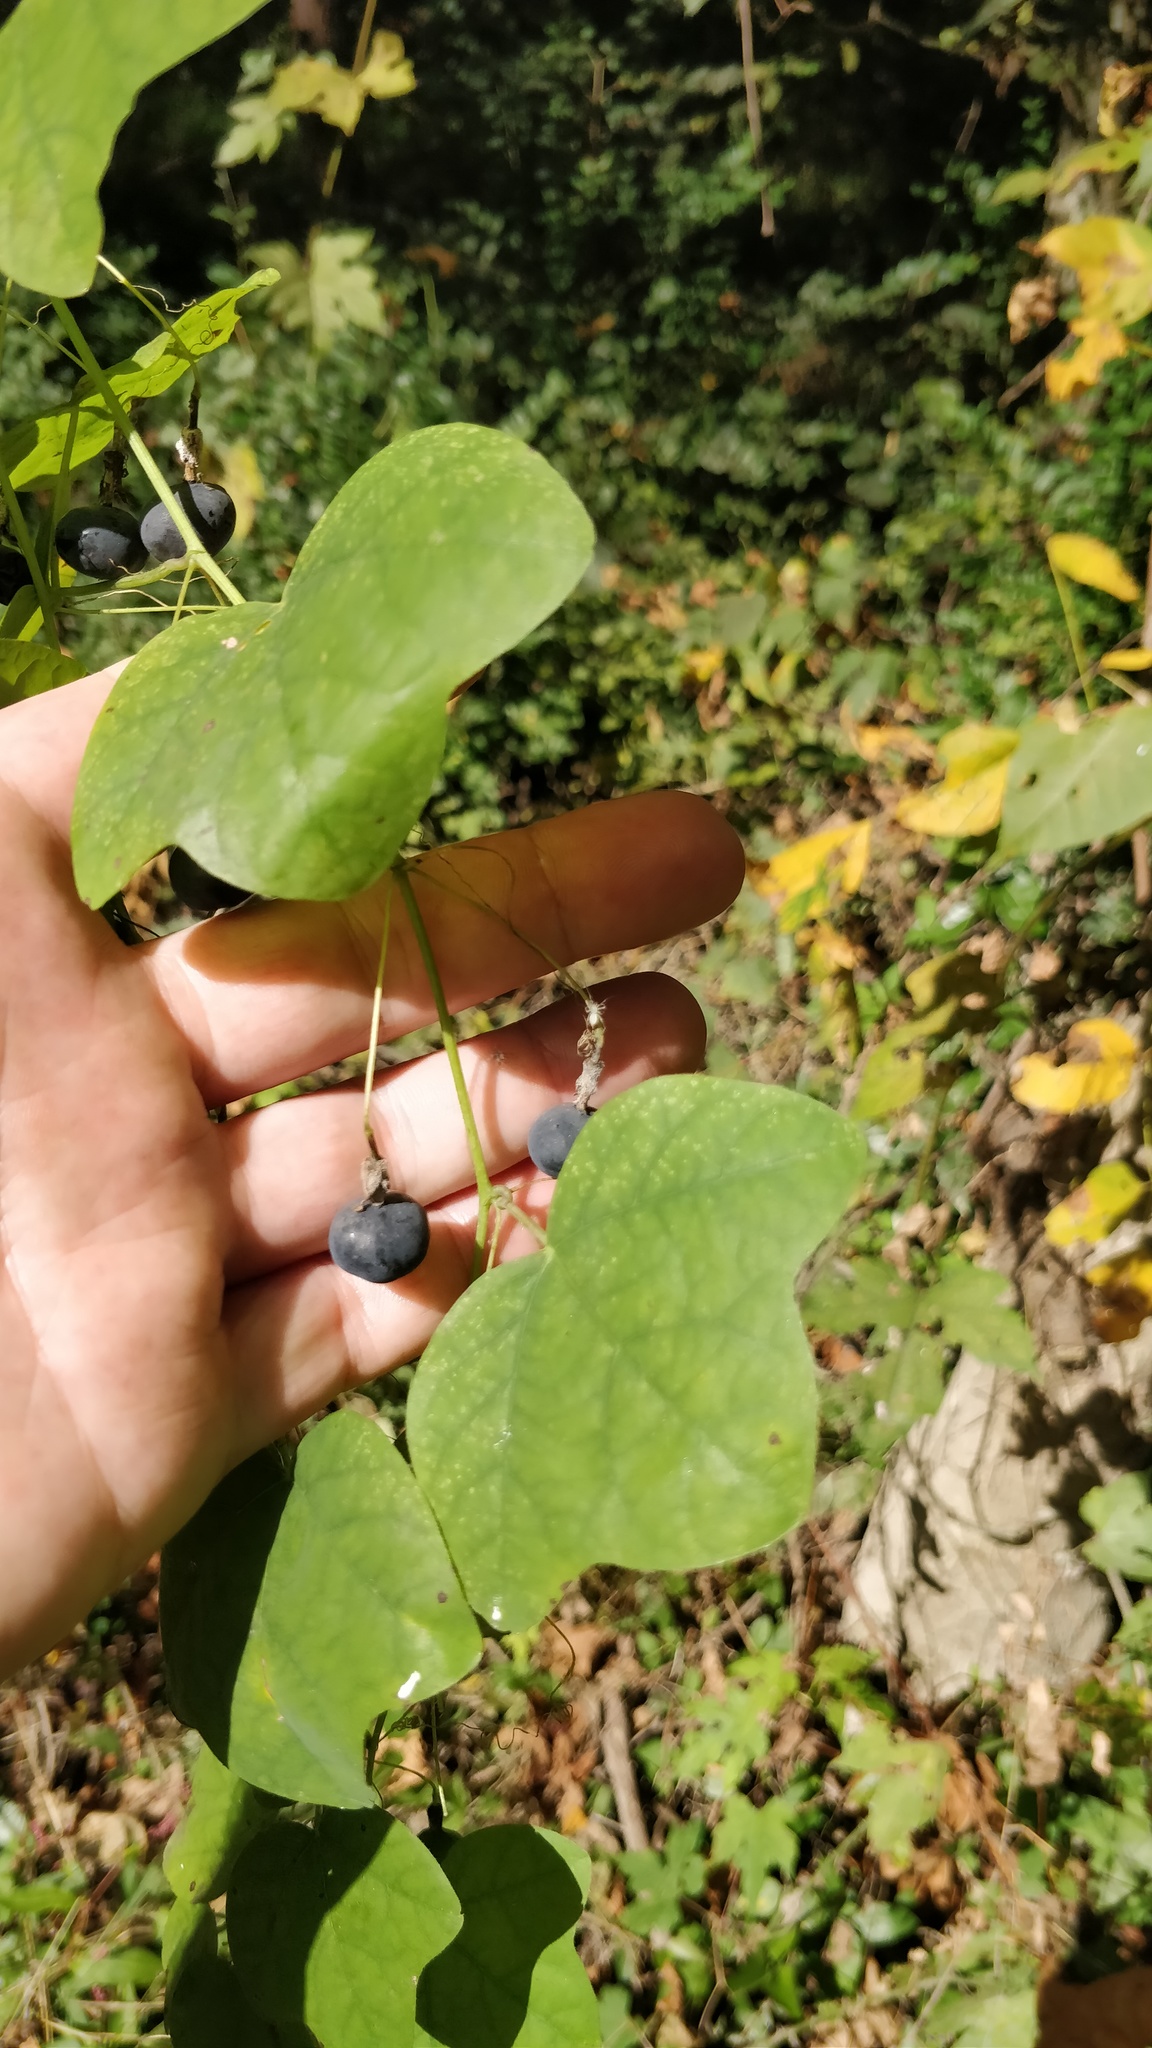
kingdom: Plantae
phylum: Tracheophyta
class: Magnoliopsida
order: Malpighiales
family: Passifloraceae
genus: Passiflora
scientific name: Passiflora lutea
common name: Yellow passionflower
